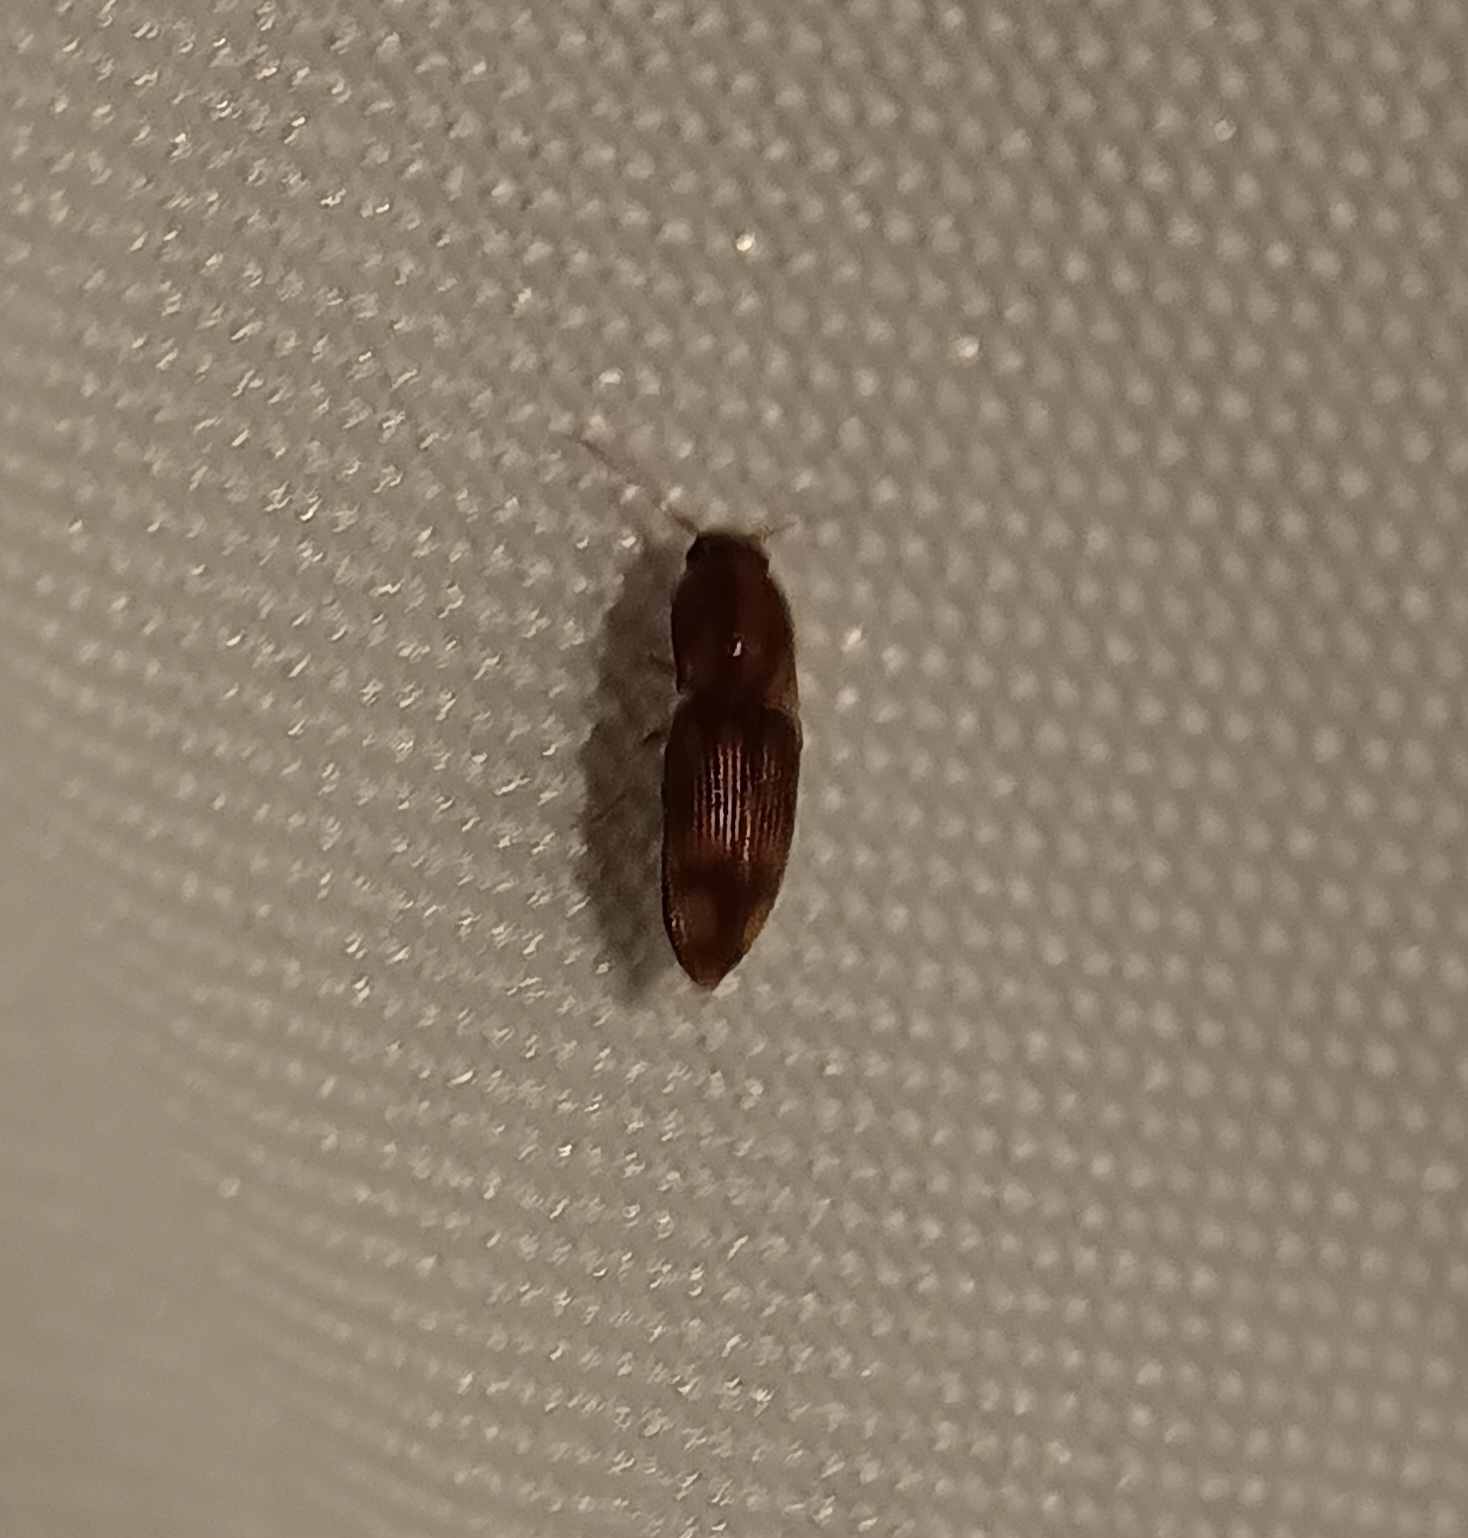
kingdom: Animalia
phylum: Arthropoda
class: Insecta
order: Coleoptera
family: Elateridae
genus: Monocrepidius
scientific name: Monocrepidius bellus
